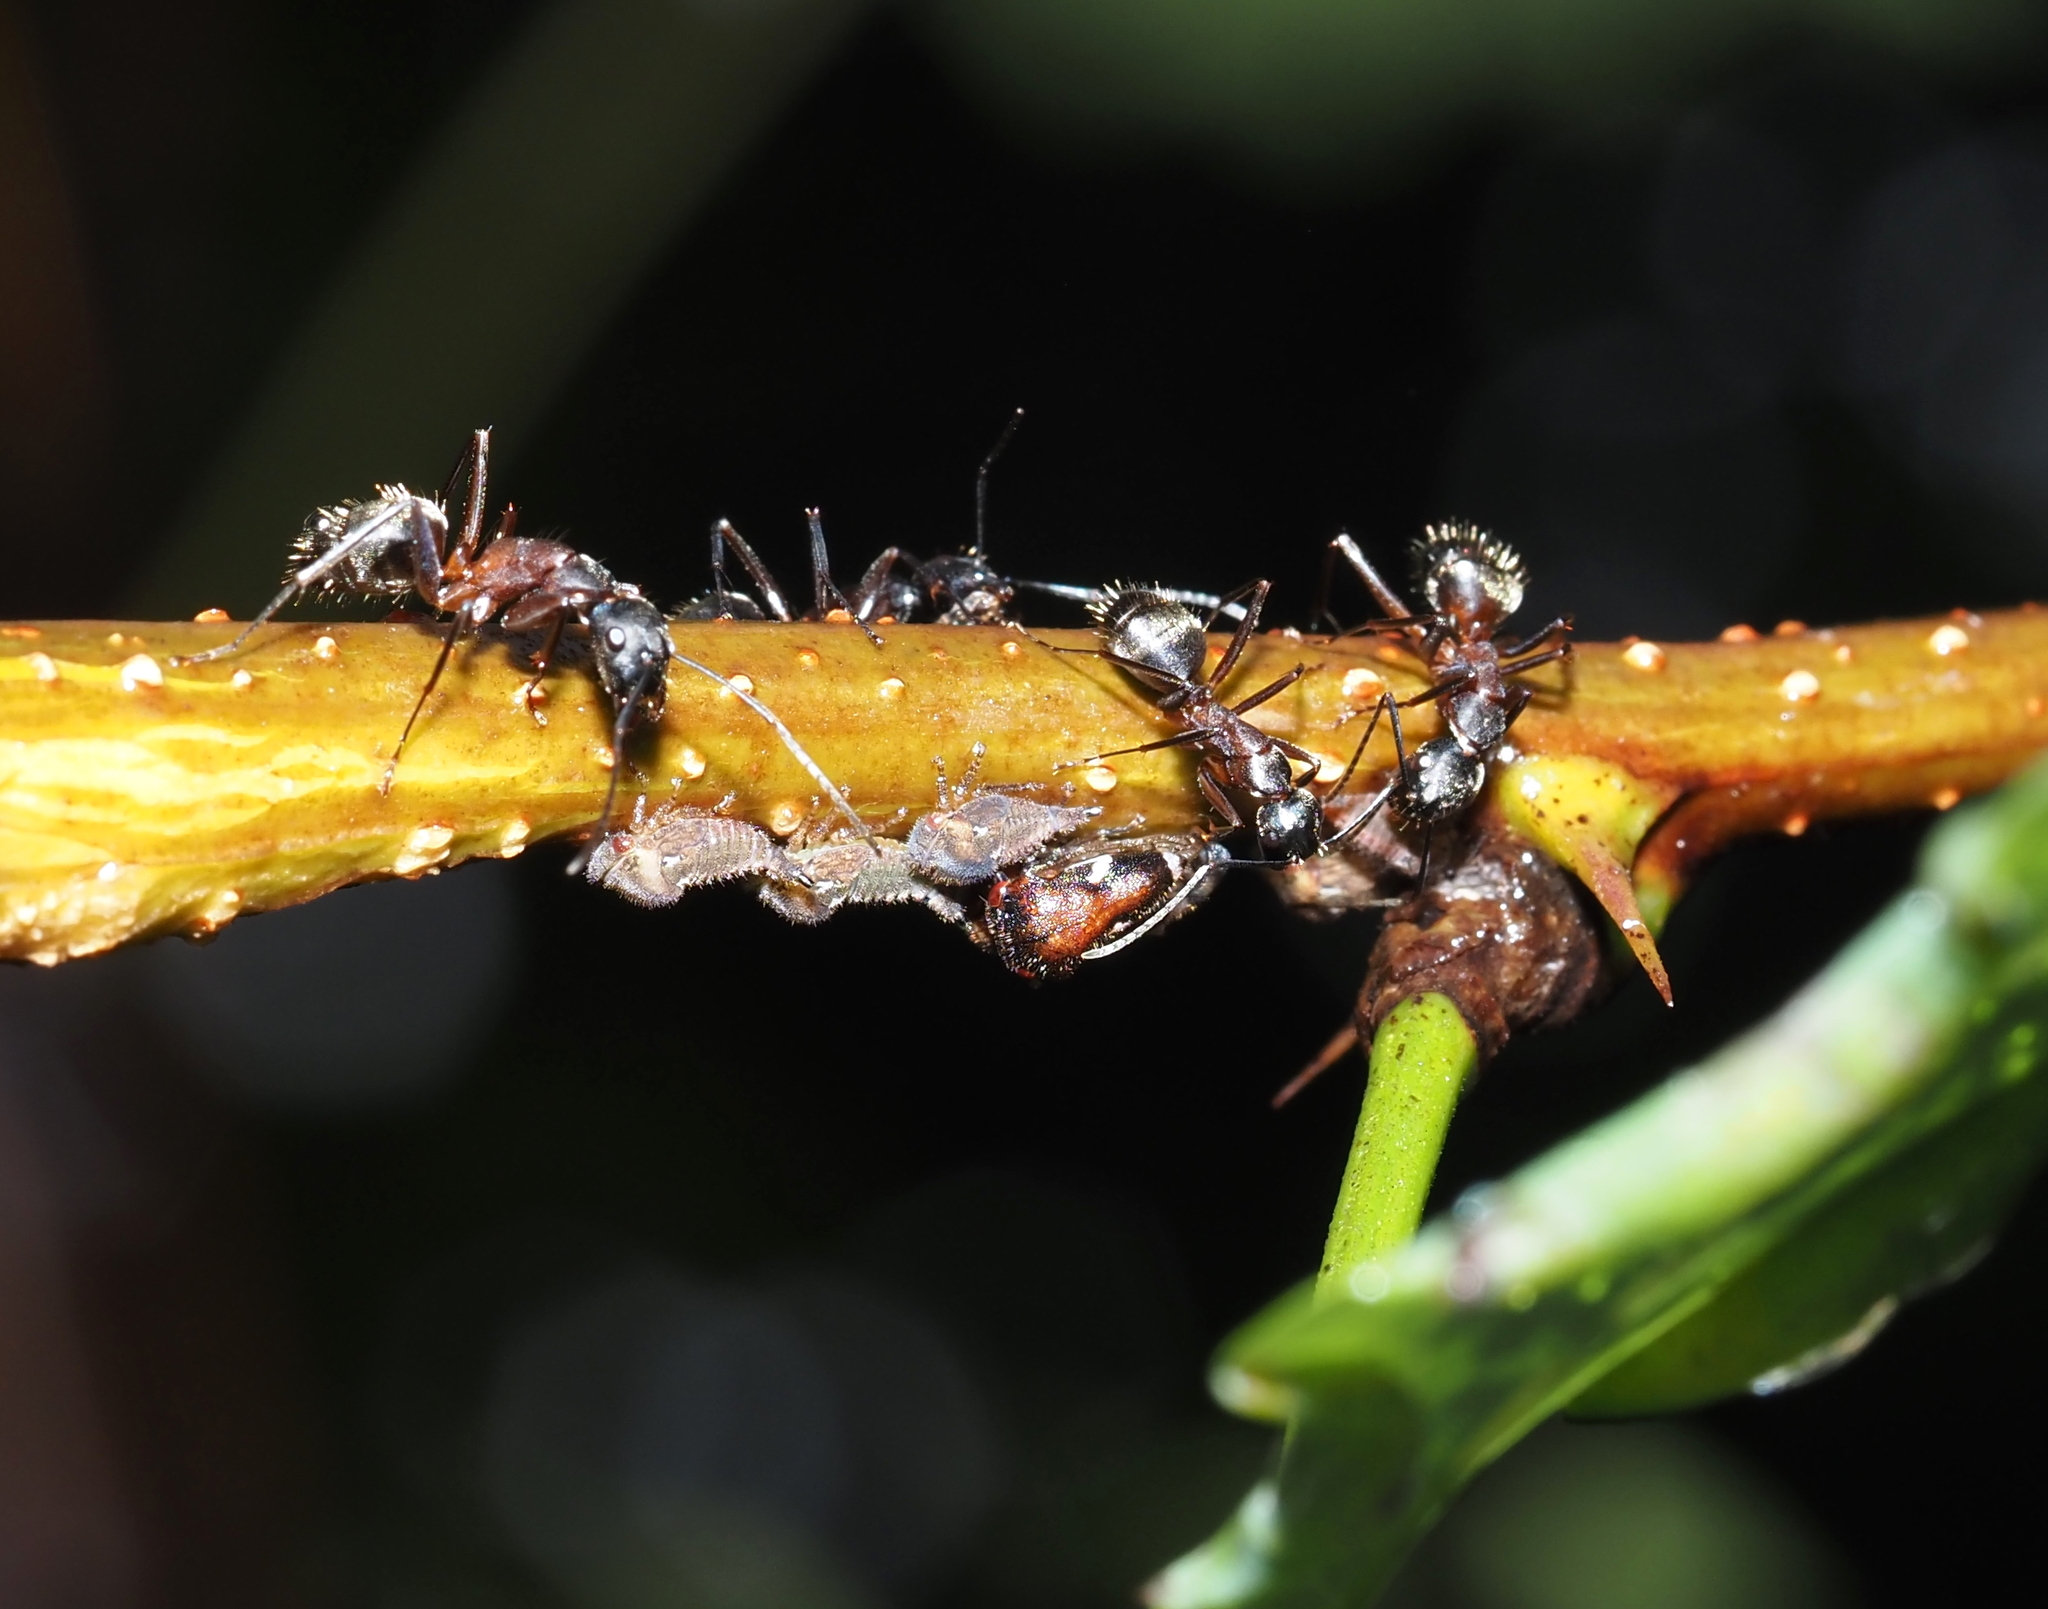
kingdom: Animalia
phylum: Arthropoda
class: Insecta
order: Hymenoptera
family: Formicidae
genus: Camponotus
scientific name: Camponotus chromaiodes
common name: Red carpenter ant
